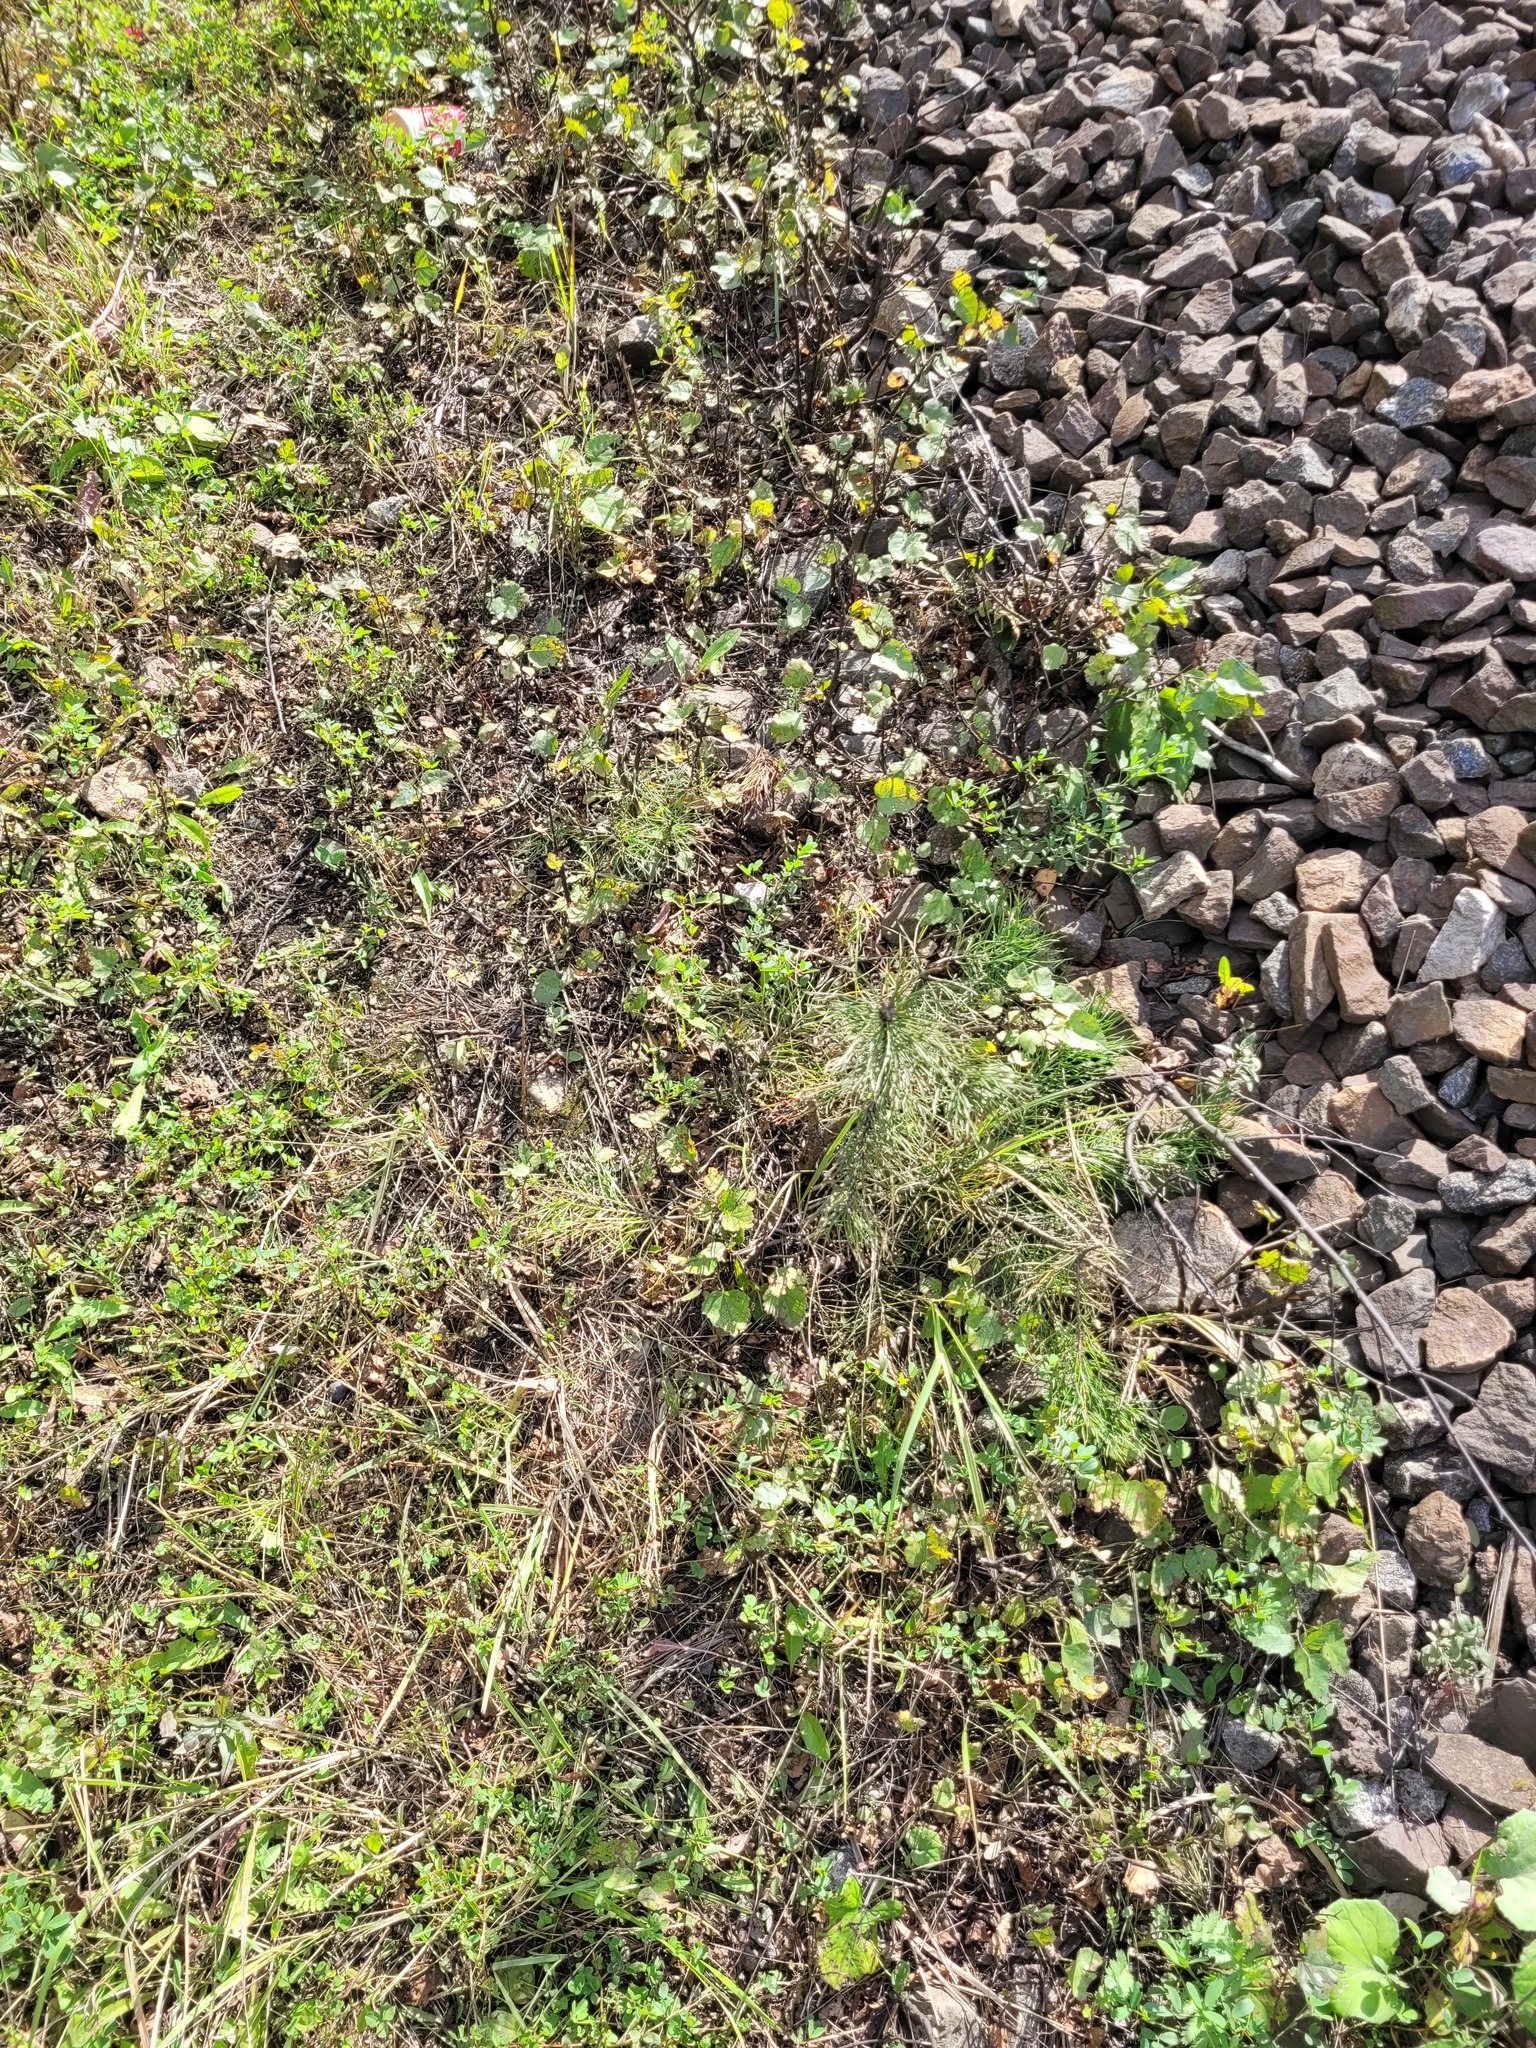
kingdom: Plantae
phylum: Tracheophyta
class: Pinopsida
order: Pinales
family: Pinaceae
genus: Pinus
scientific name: Pinus sylvestris
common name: Scots pine
